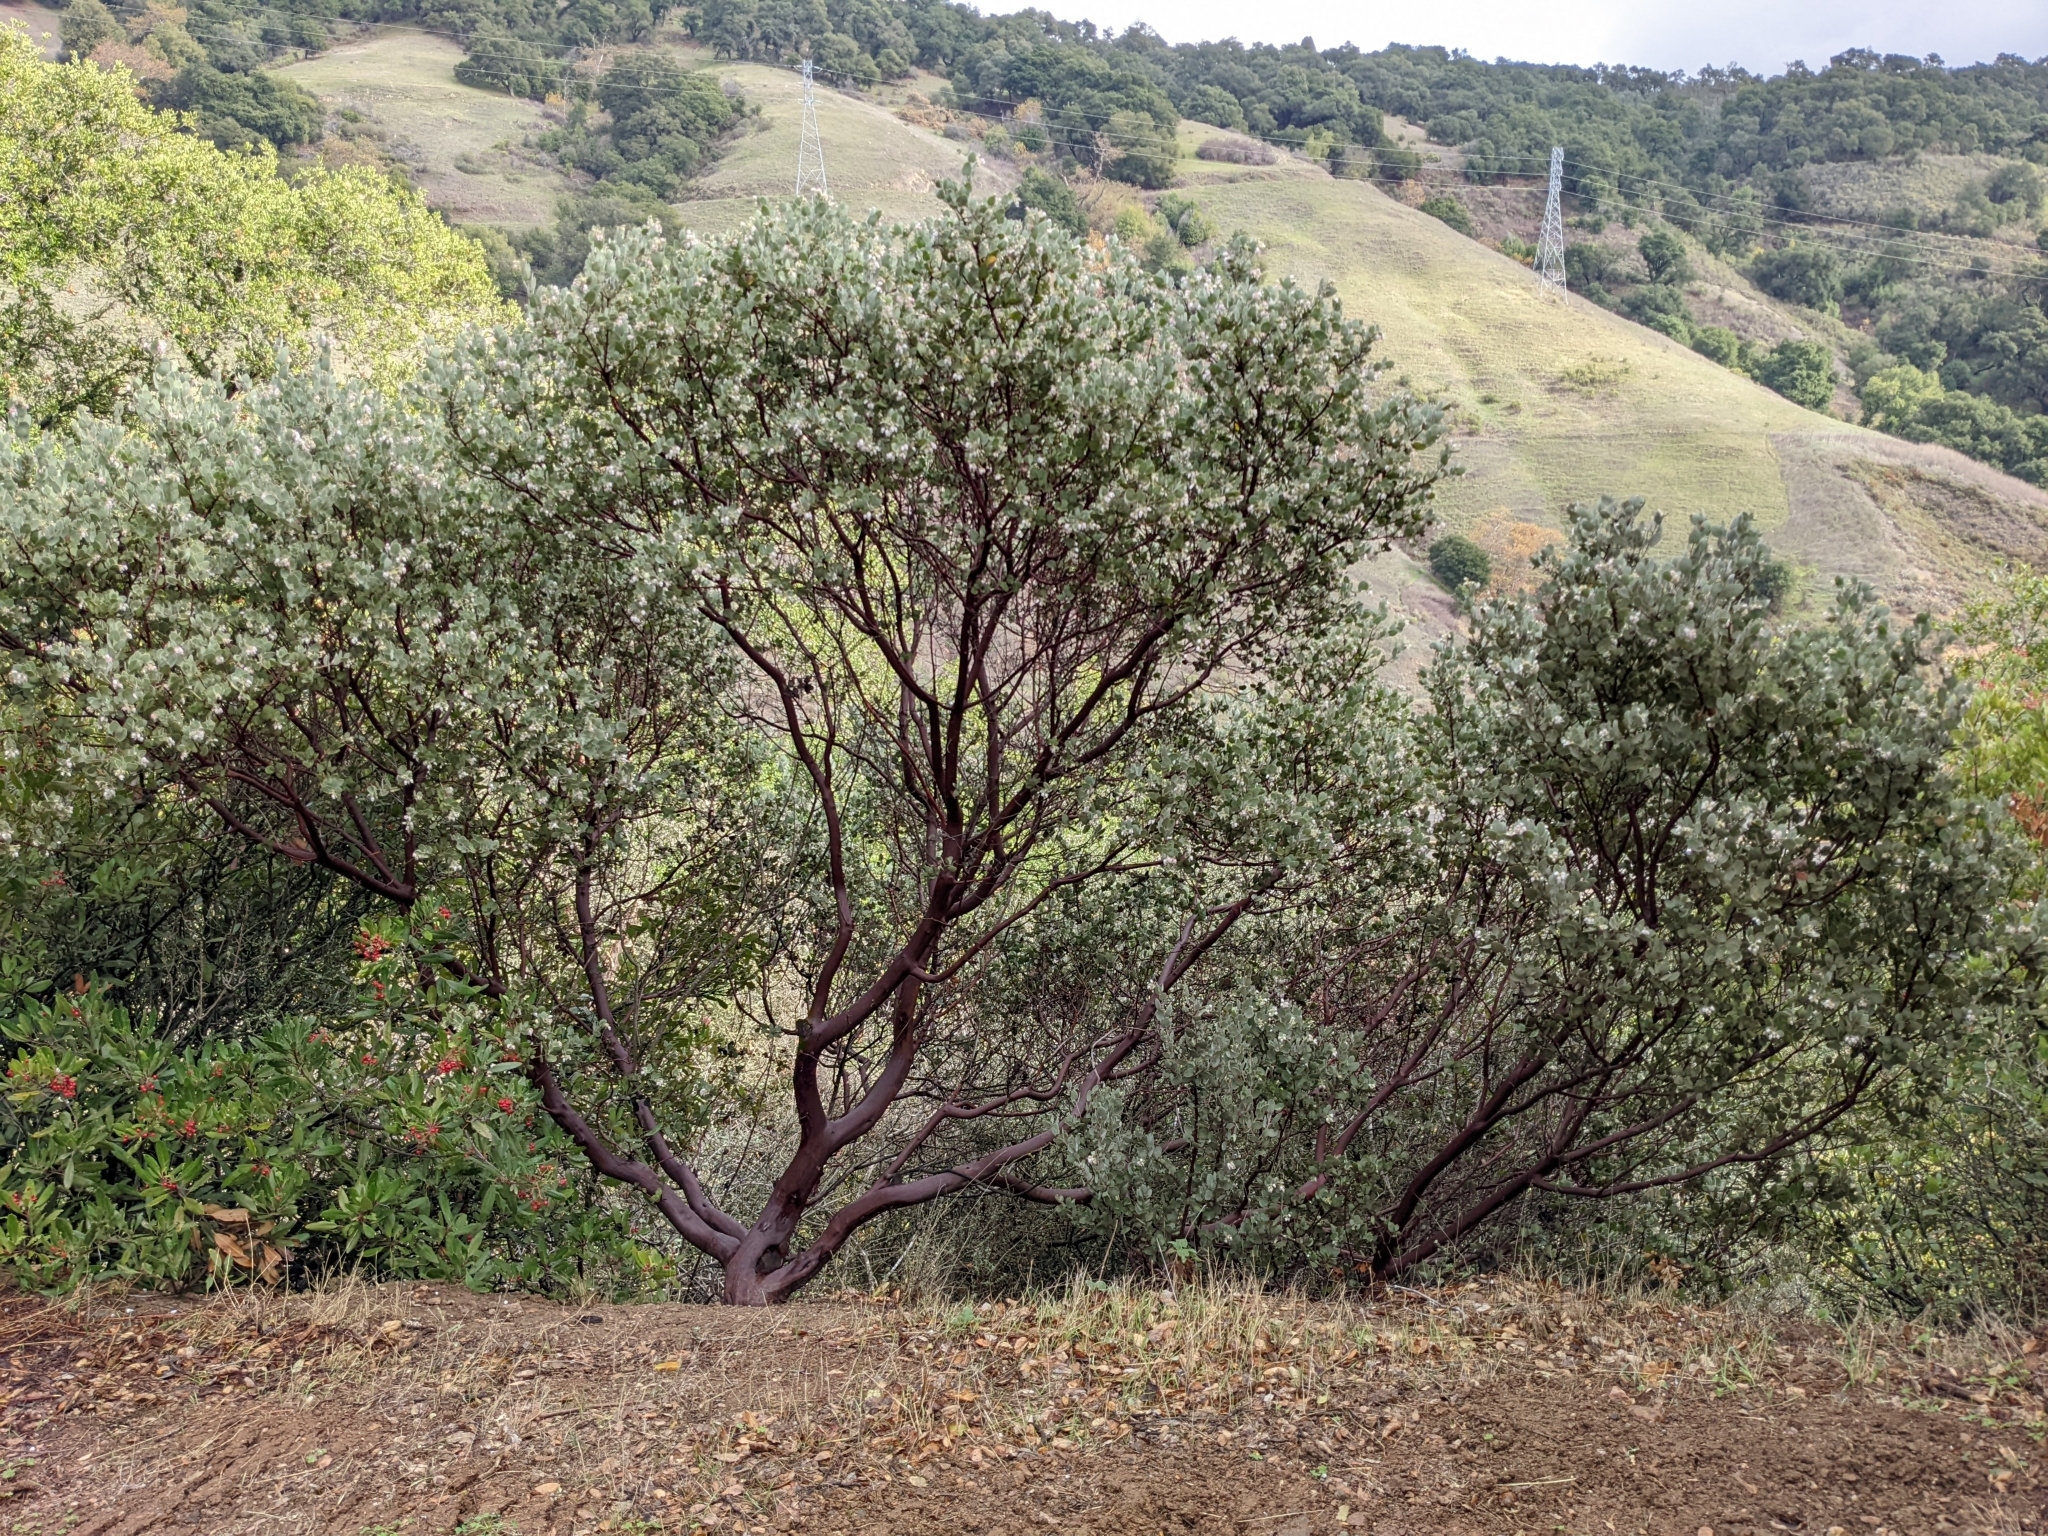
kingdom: Plantae
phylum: Tracheophyta
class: Magnoliopsida
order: Ericales
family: Ericaceae
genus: Arctostaphylos
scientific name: Arctostaphylos obispoensis
